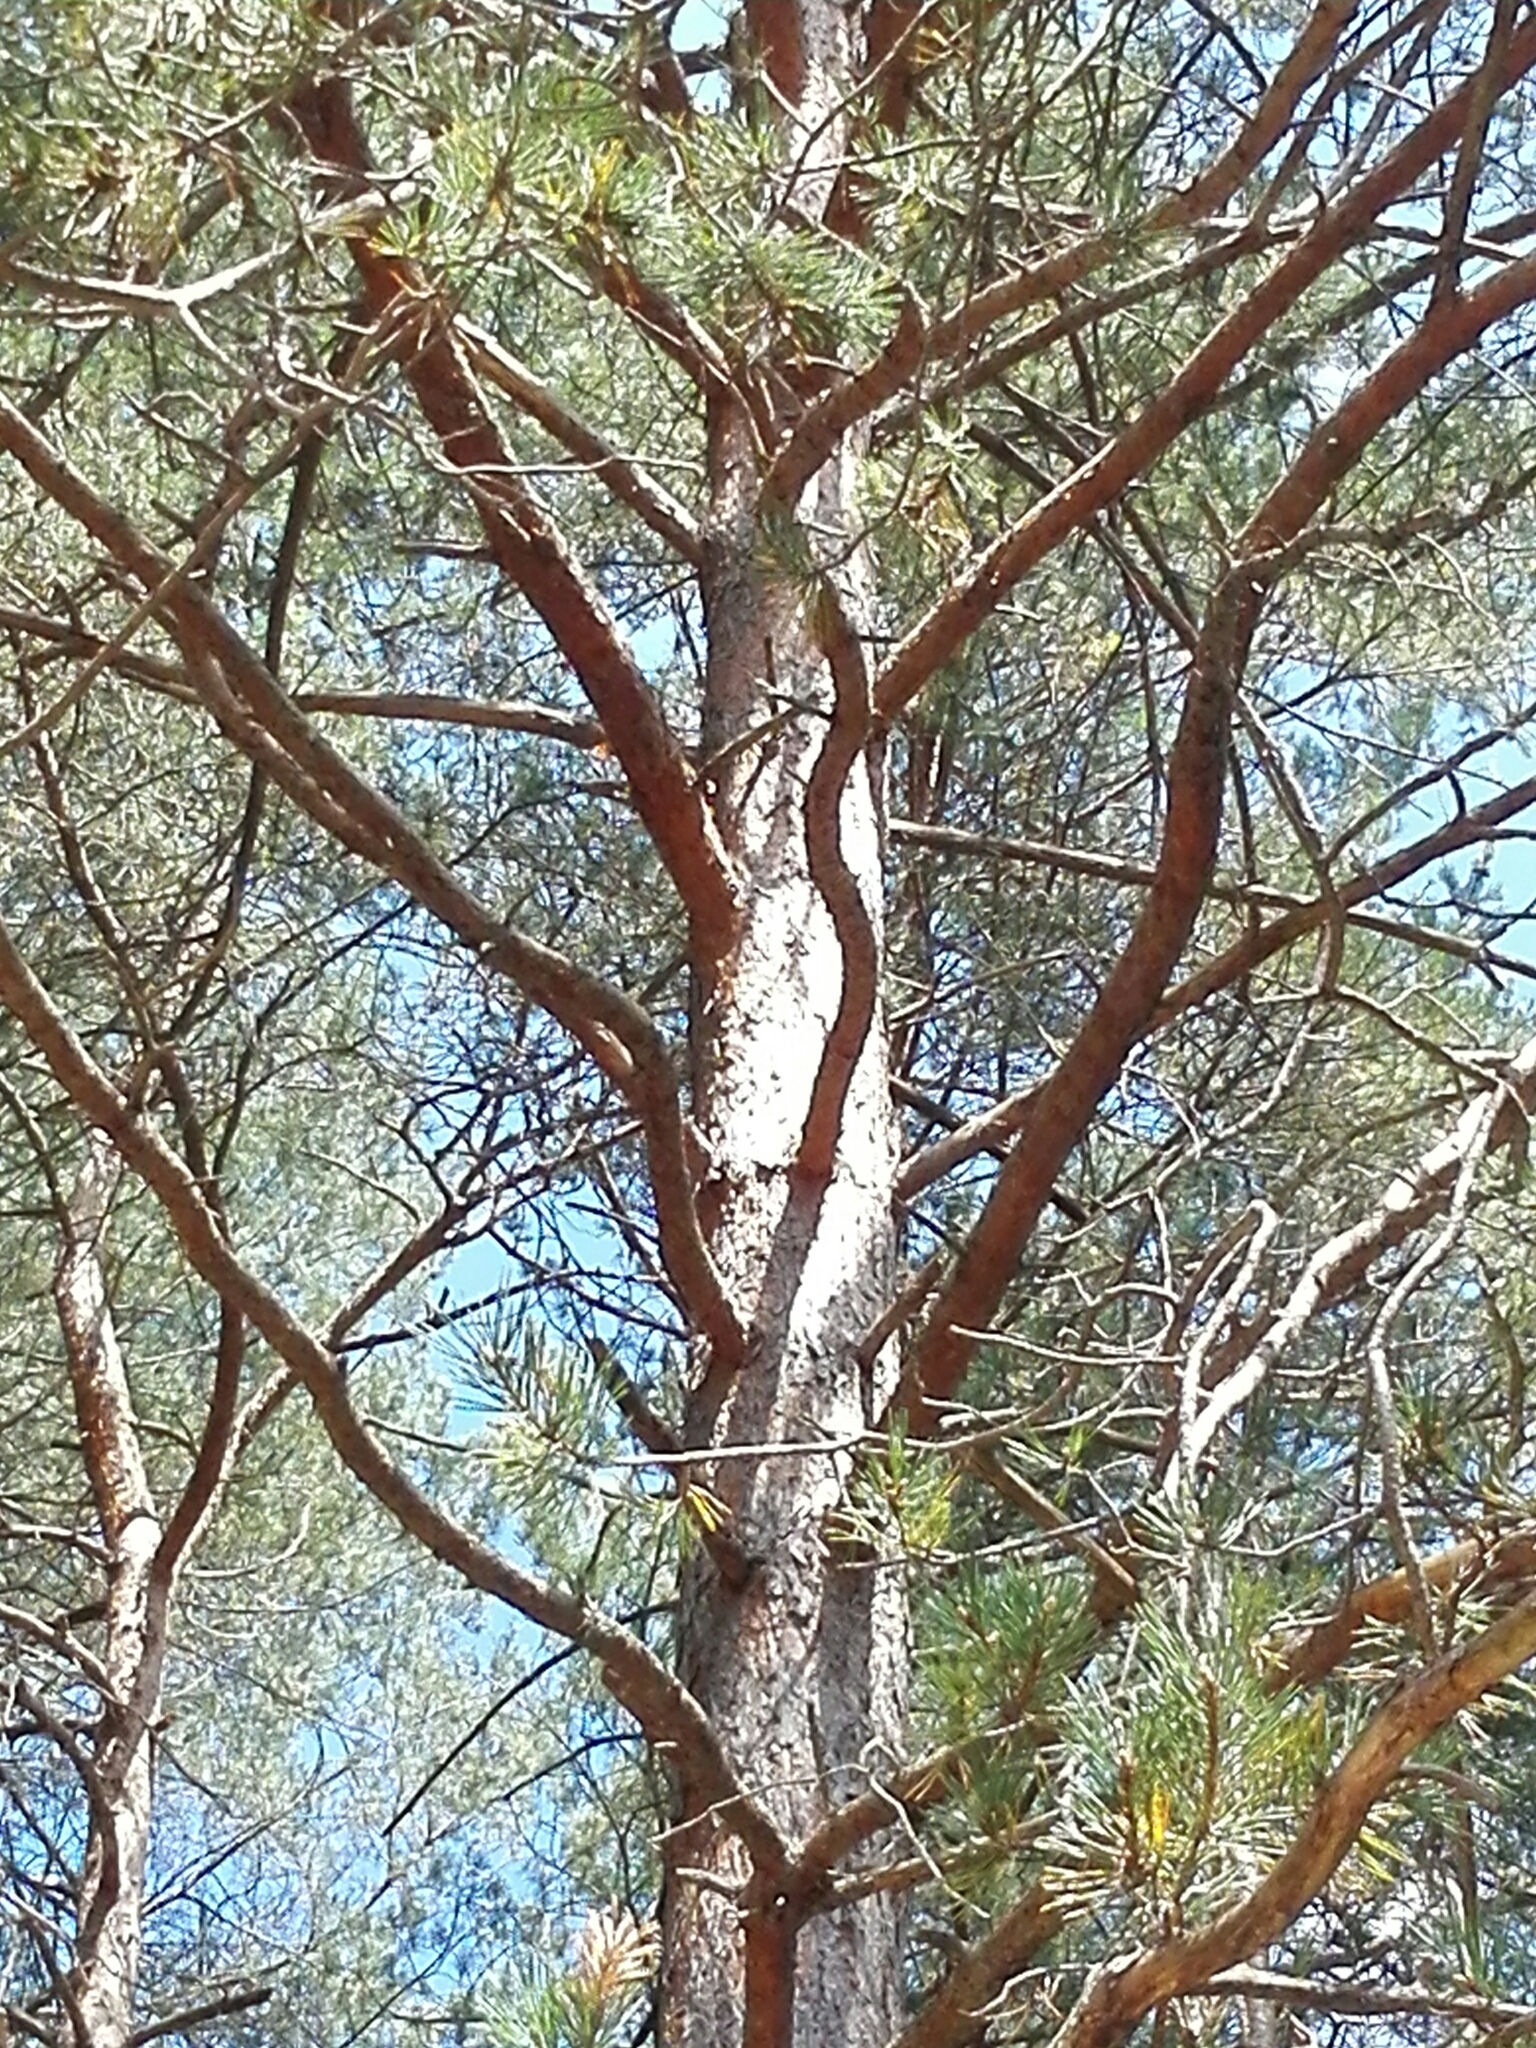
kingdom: Plantae
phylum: Tracheophyta
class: Pinopsida
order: Pinales
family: Pinaceae
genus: Pinus
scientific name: Pinus sylvestris
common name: Scots pine
